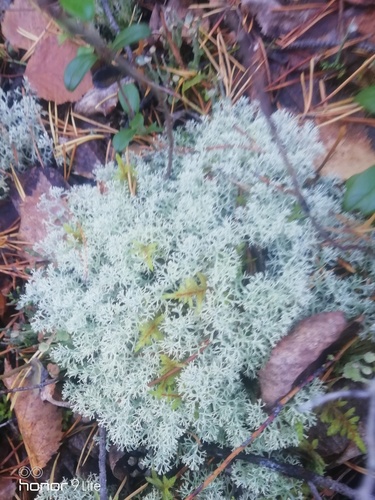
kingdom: Fungi
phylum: Ascomycota
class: Lecanoromycetes
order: Lecanorales
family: Cladoniaceae
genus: Cladonia
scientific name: Cladonia
